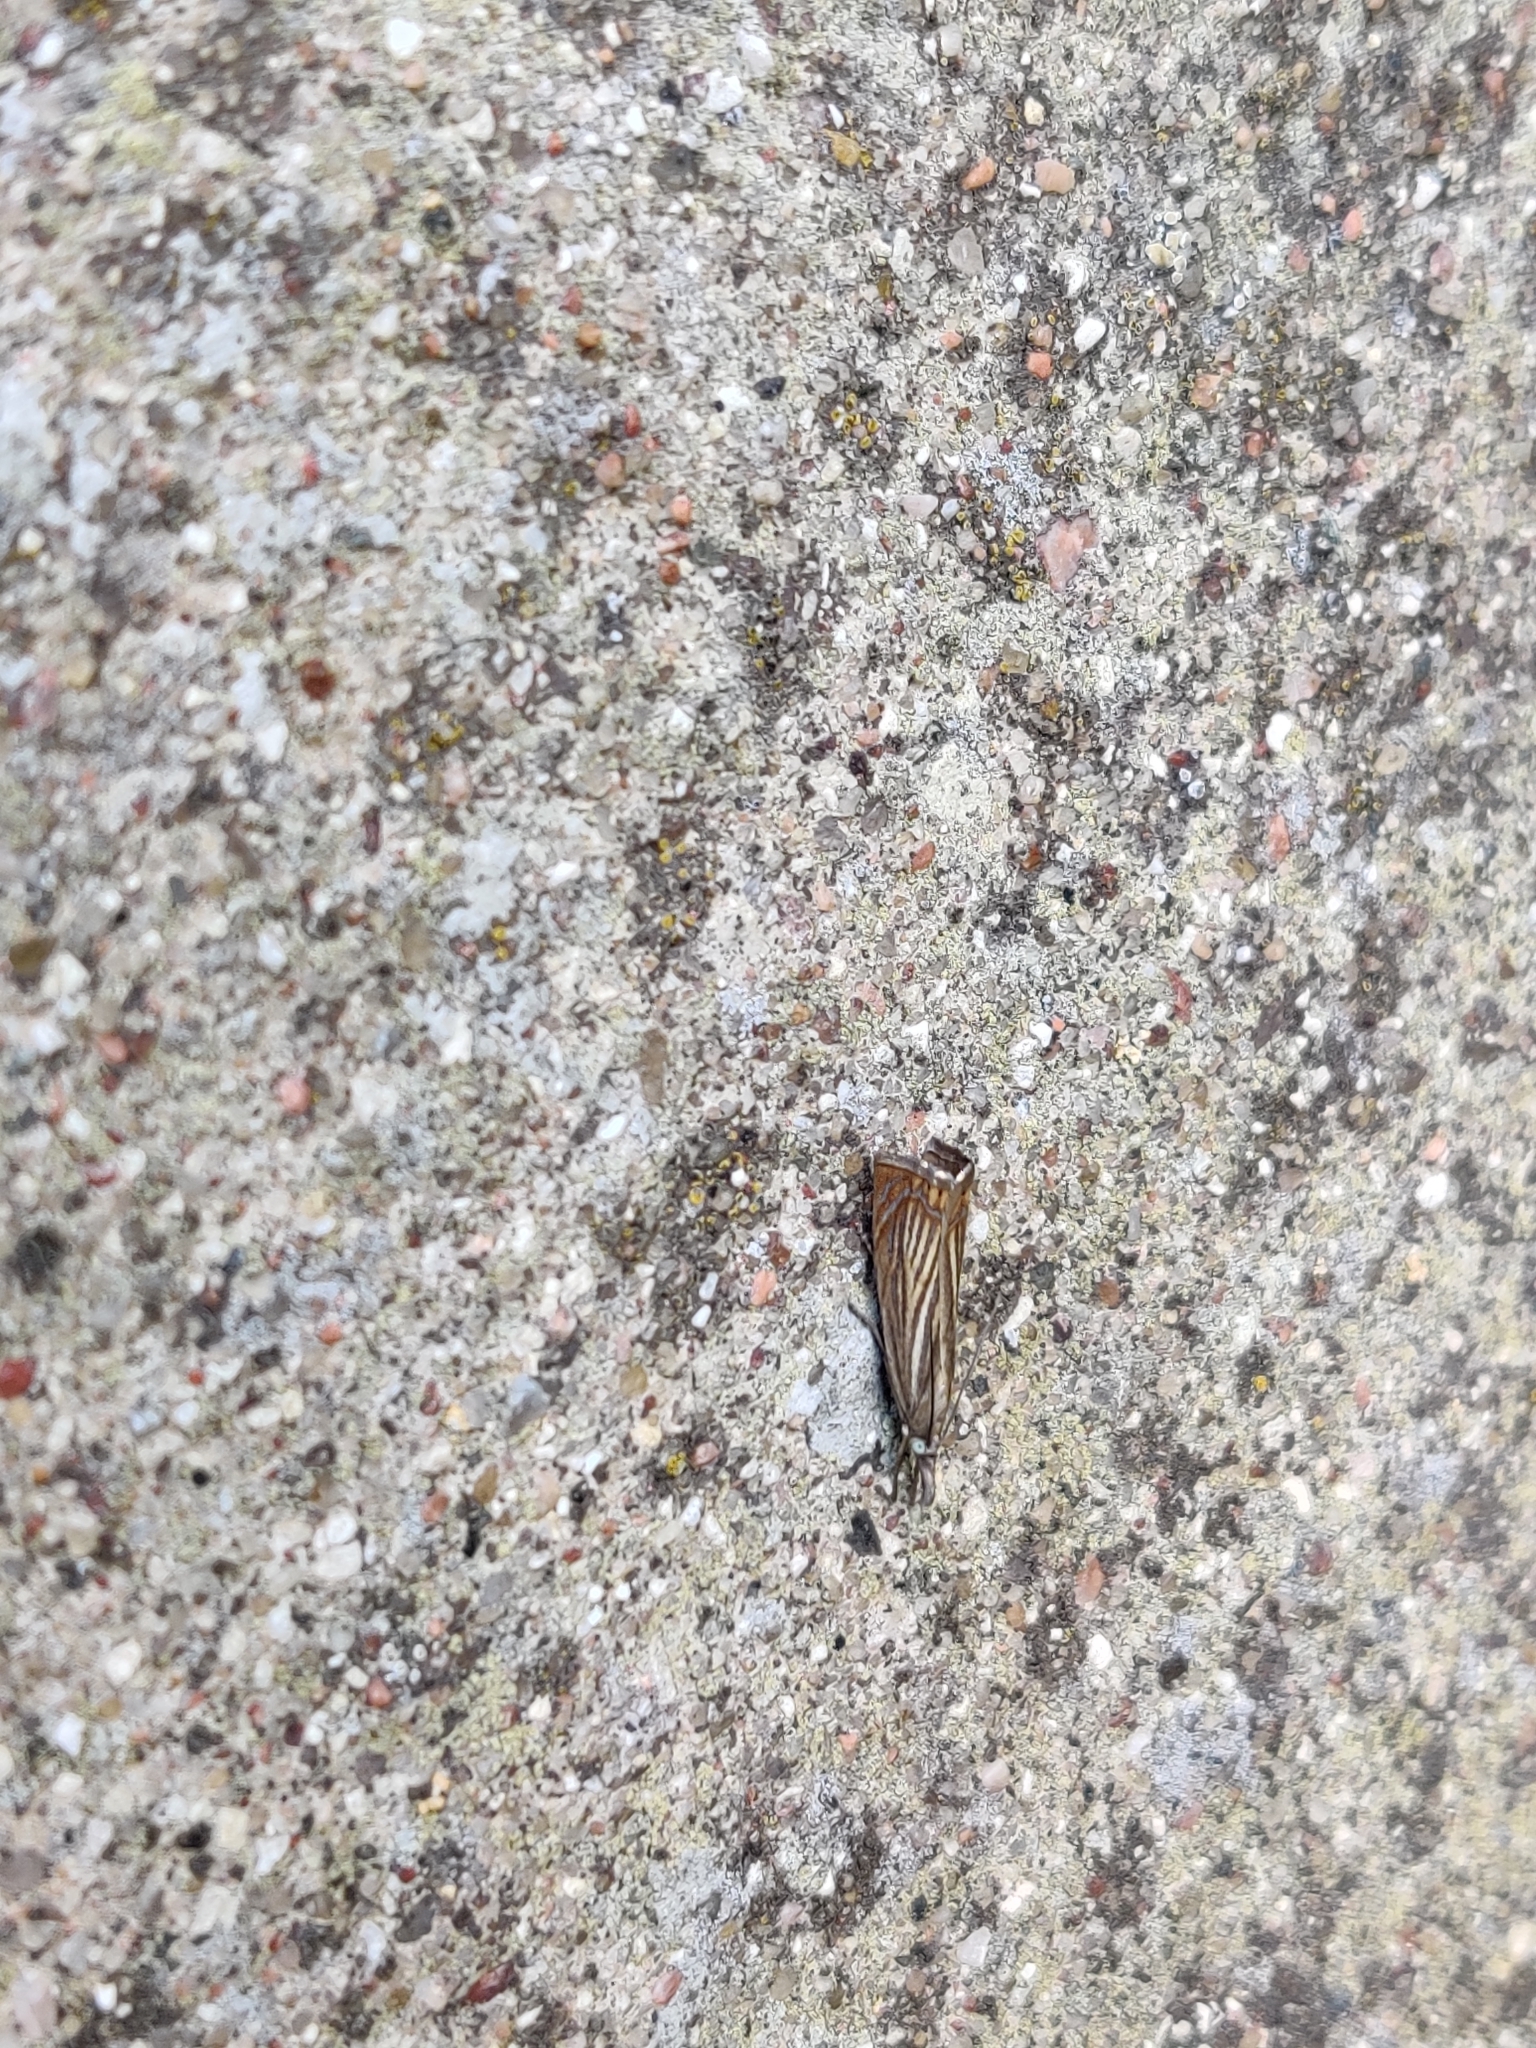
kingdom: Animalia
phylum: Arthropoda
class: Insecta
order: Lepidoptera
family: Crambidae
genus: Chrysoteuchia
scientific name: Chrysoteuchia culmella
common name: Garden grass-veneer
